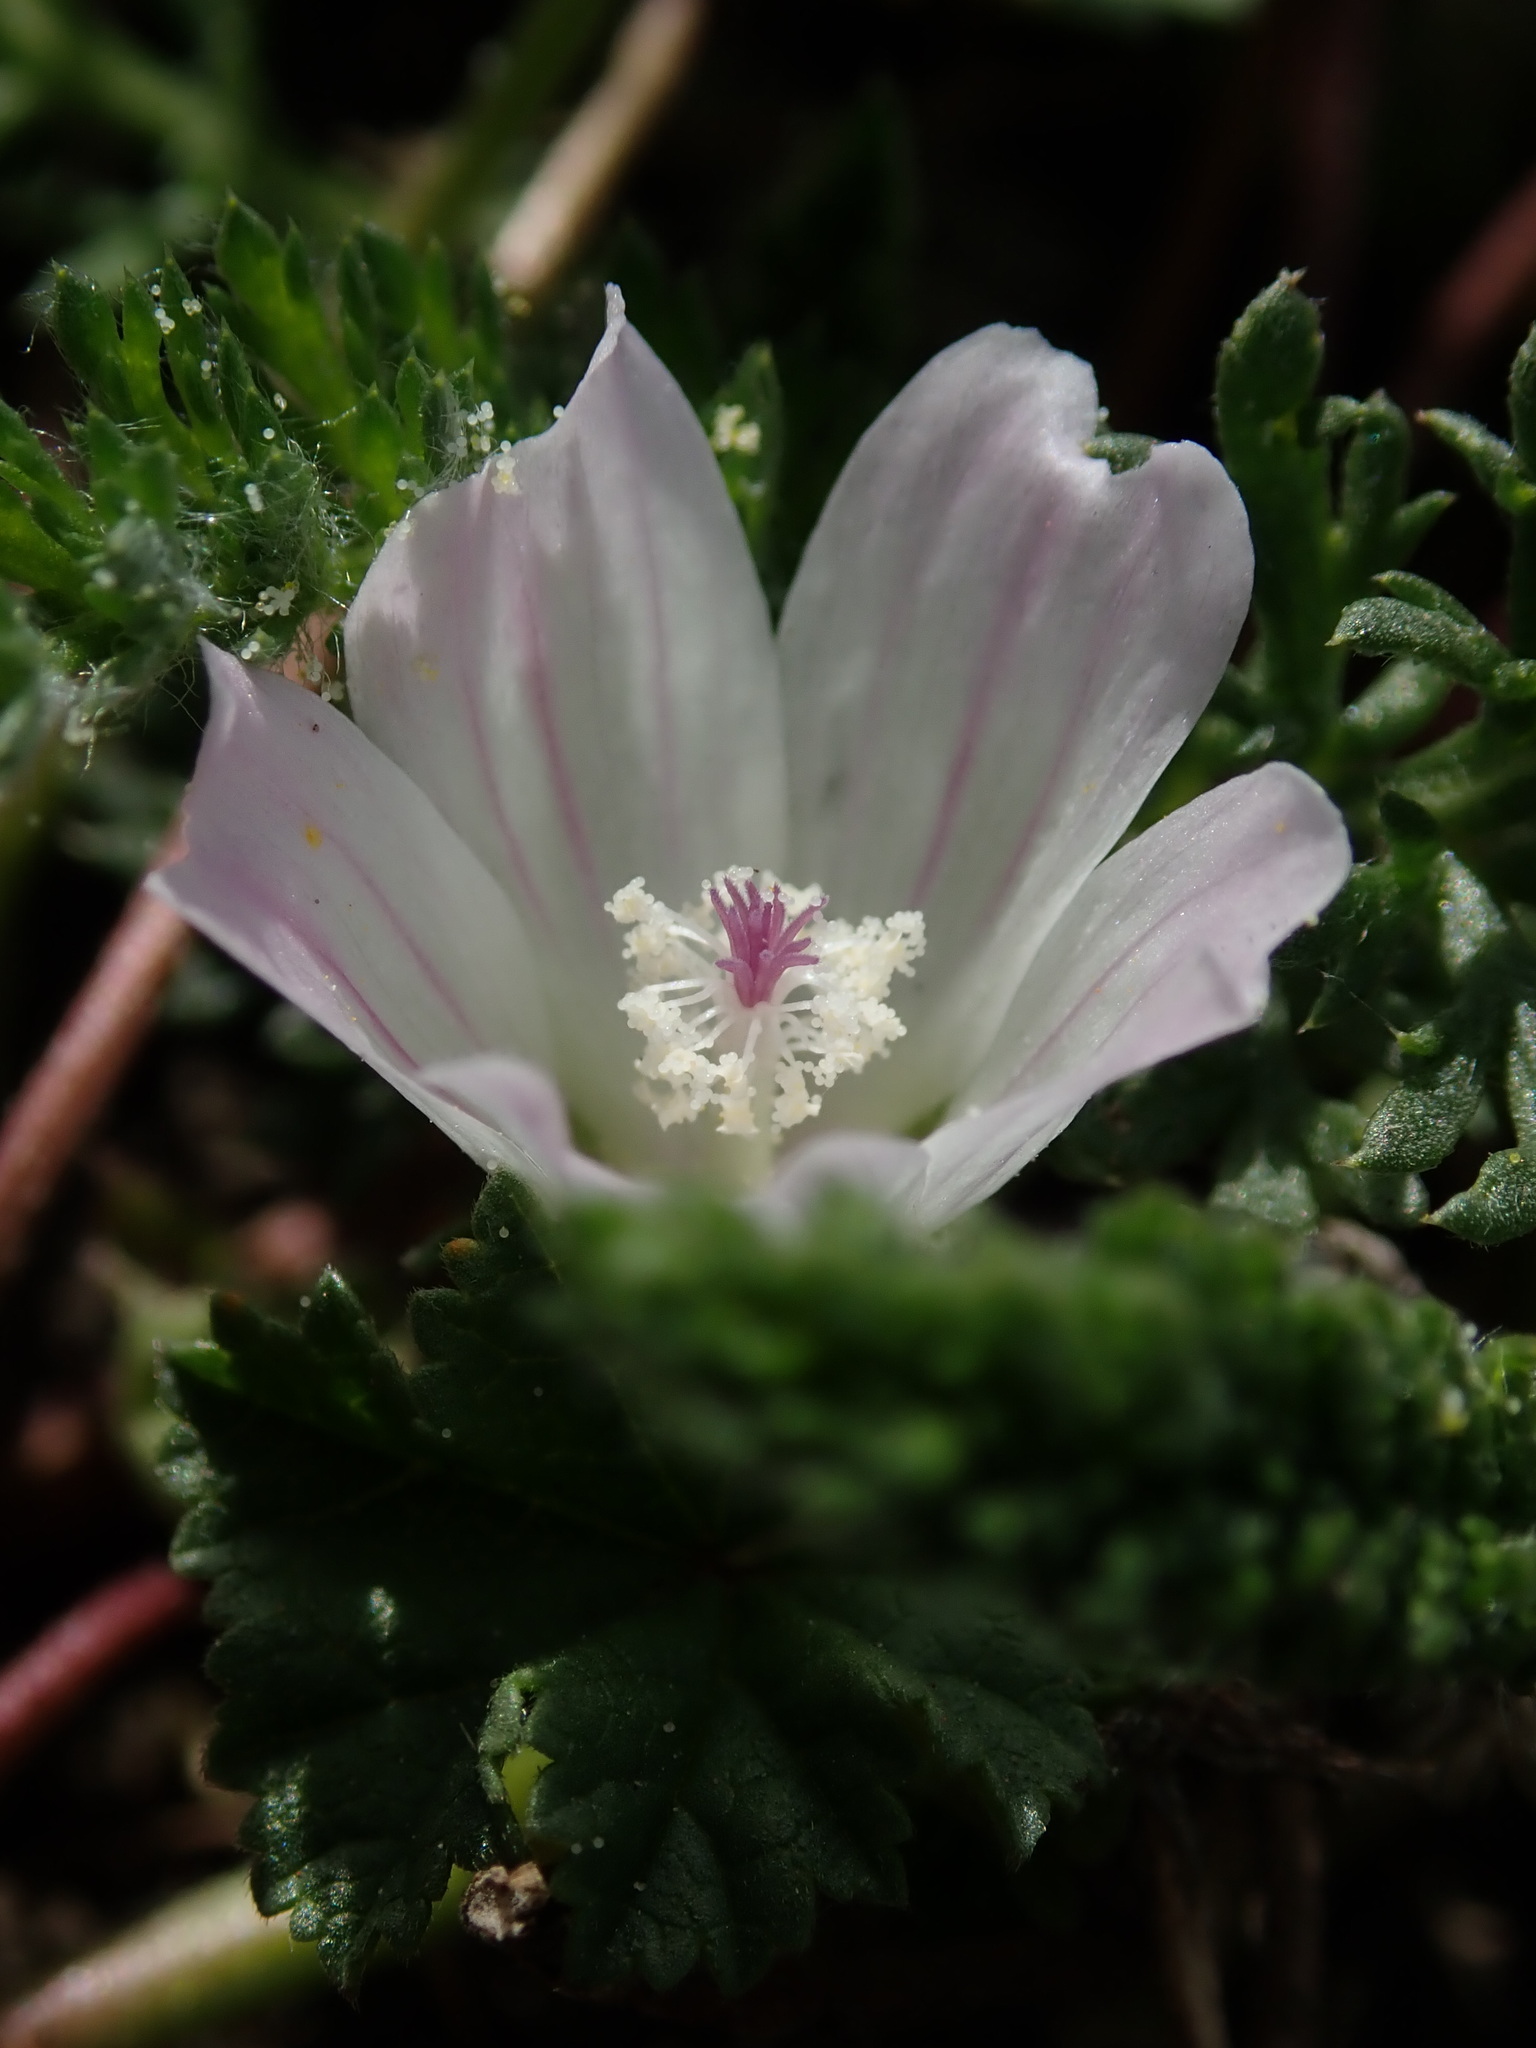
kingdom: Plantae
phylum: Tracheophyta
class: Magnoliopsida
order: Malvales
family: Malvaceae
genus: Malva
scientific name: Malva neglecta
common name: Common mallow
